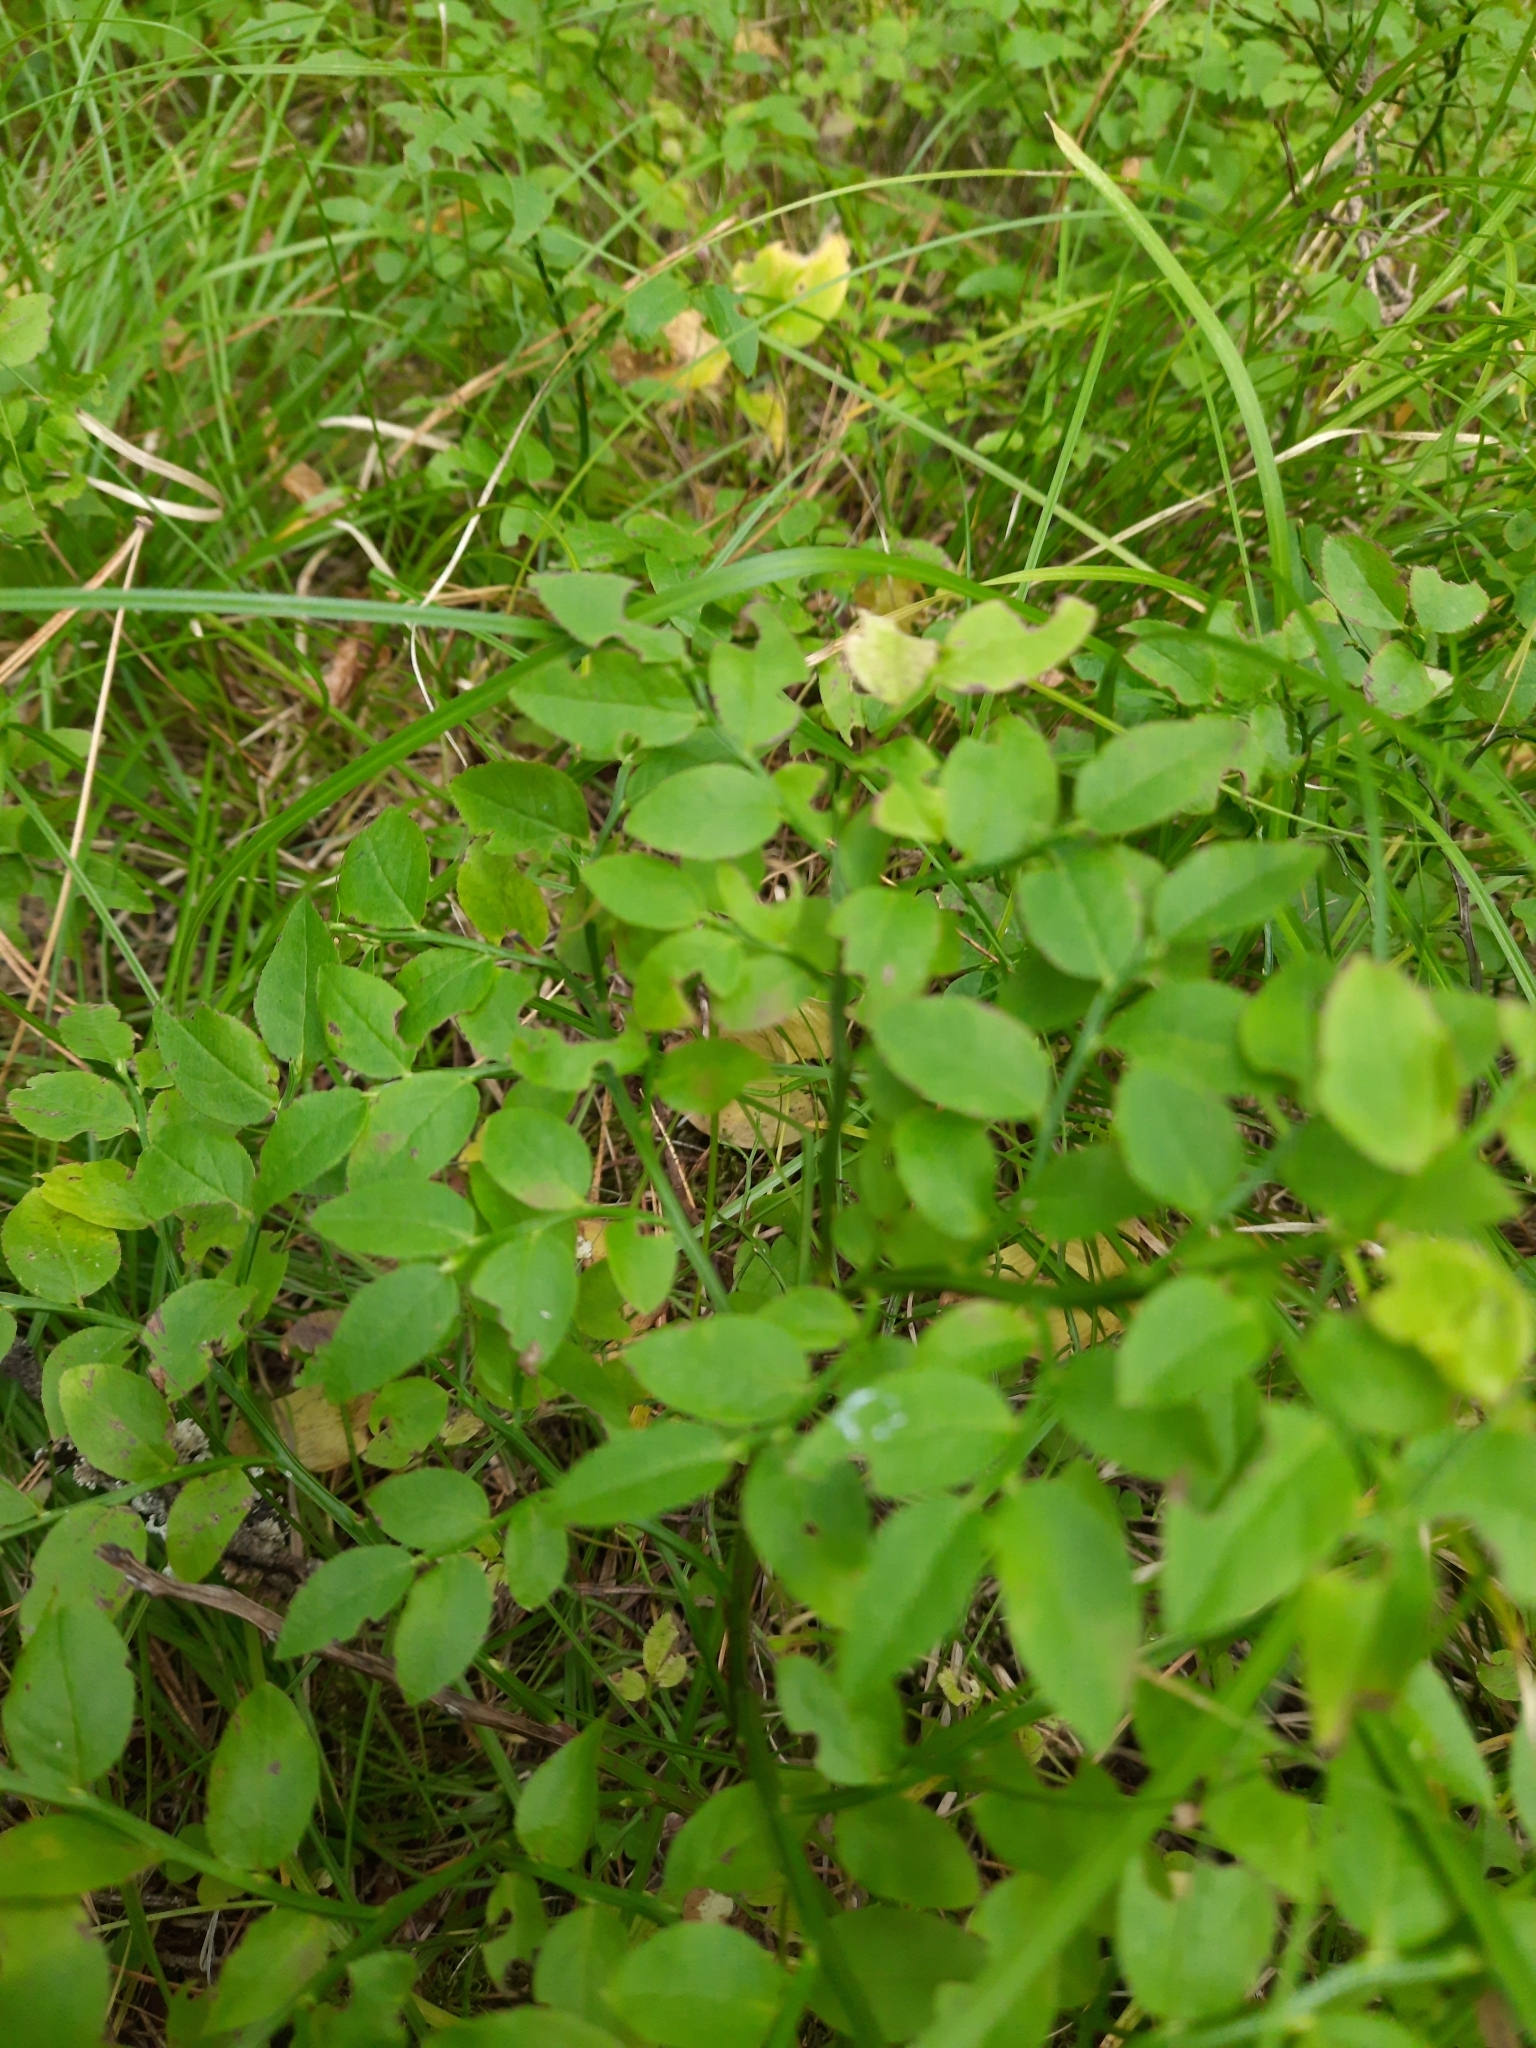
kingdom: Plantae
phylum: Tracheophyta
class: Magnoliopsida
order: Ericales
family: Ericaceae
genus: Vaccinium
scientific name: Vaccinium myrtillus
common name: Bilberry
